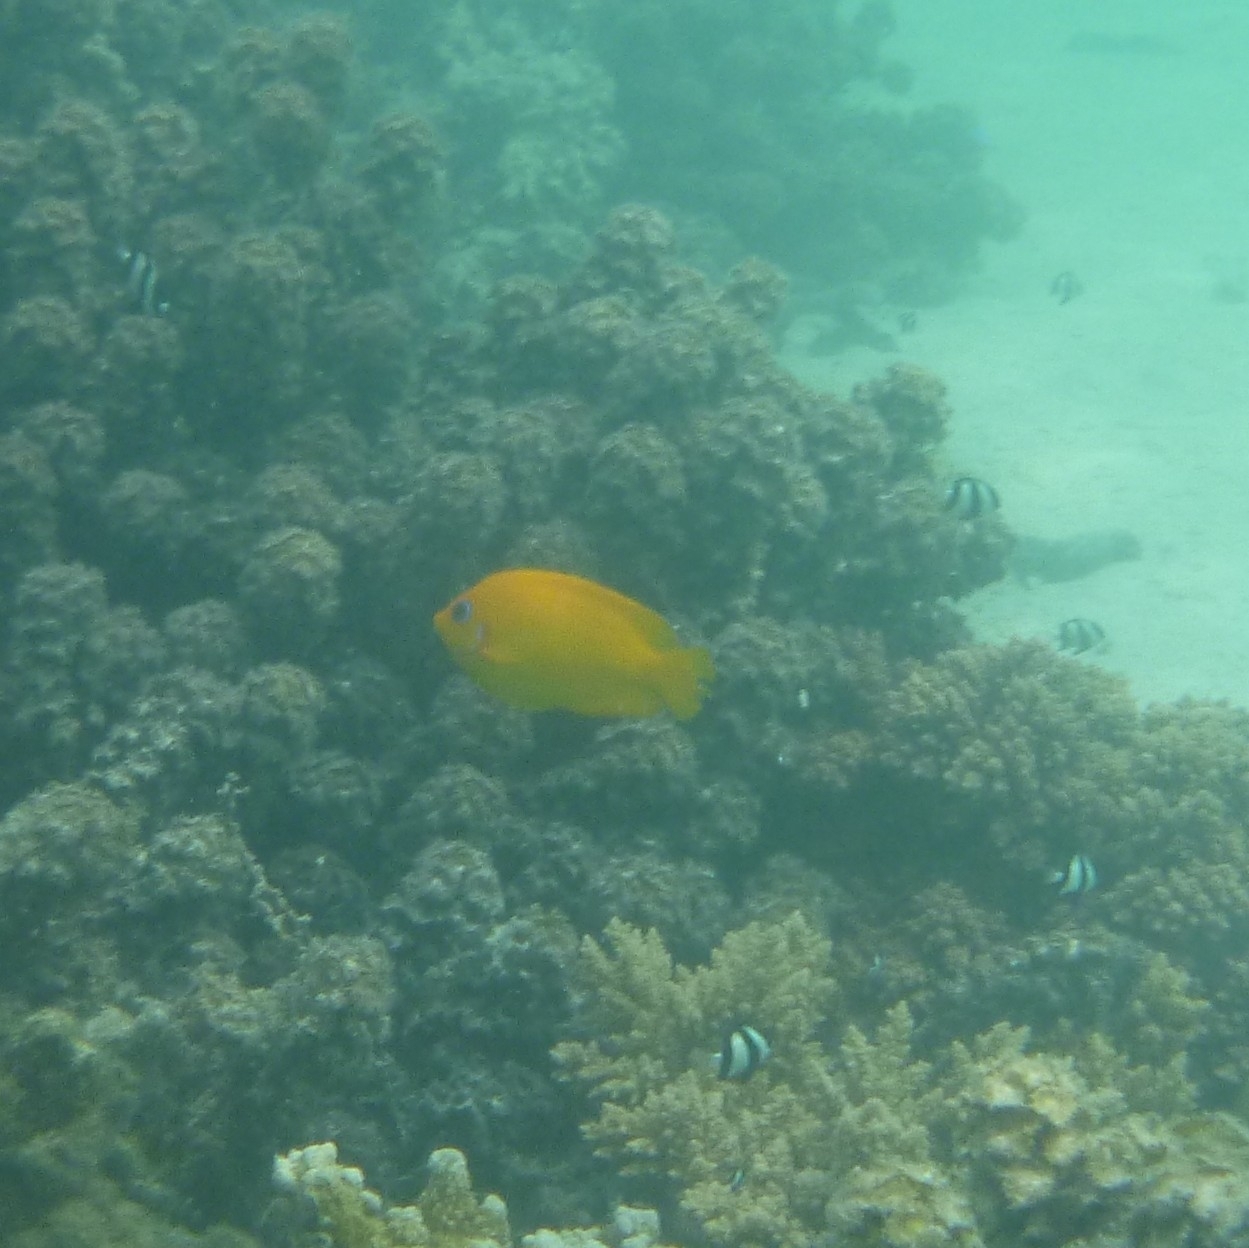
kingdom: Animalia
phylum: Chordata
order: Perciformes
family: Pomacanthidae
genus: Centropyge
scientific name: Centropyge flavissima
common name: Lemonpeel angelfish
